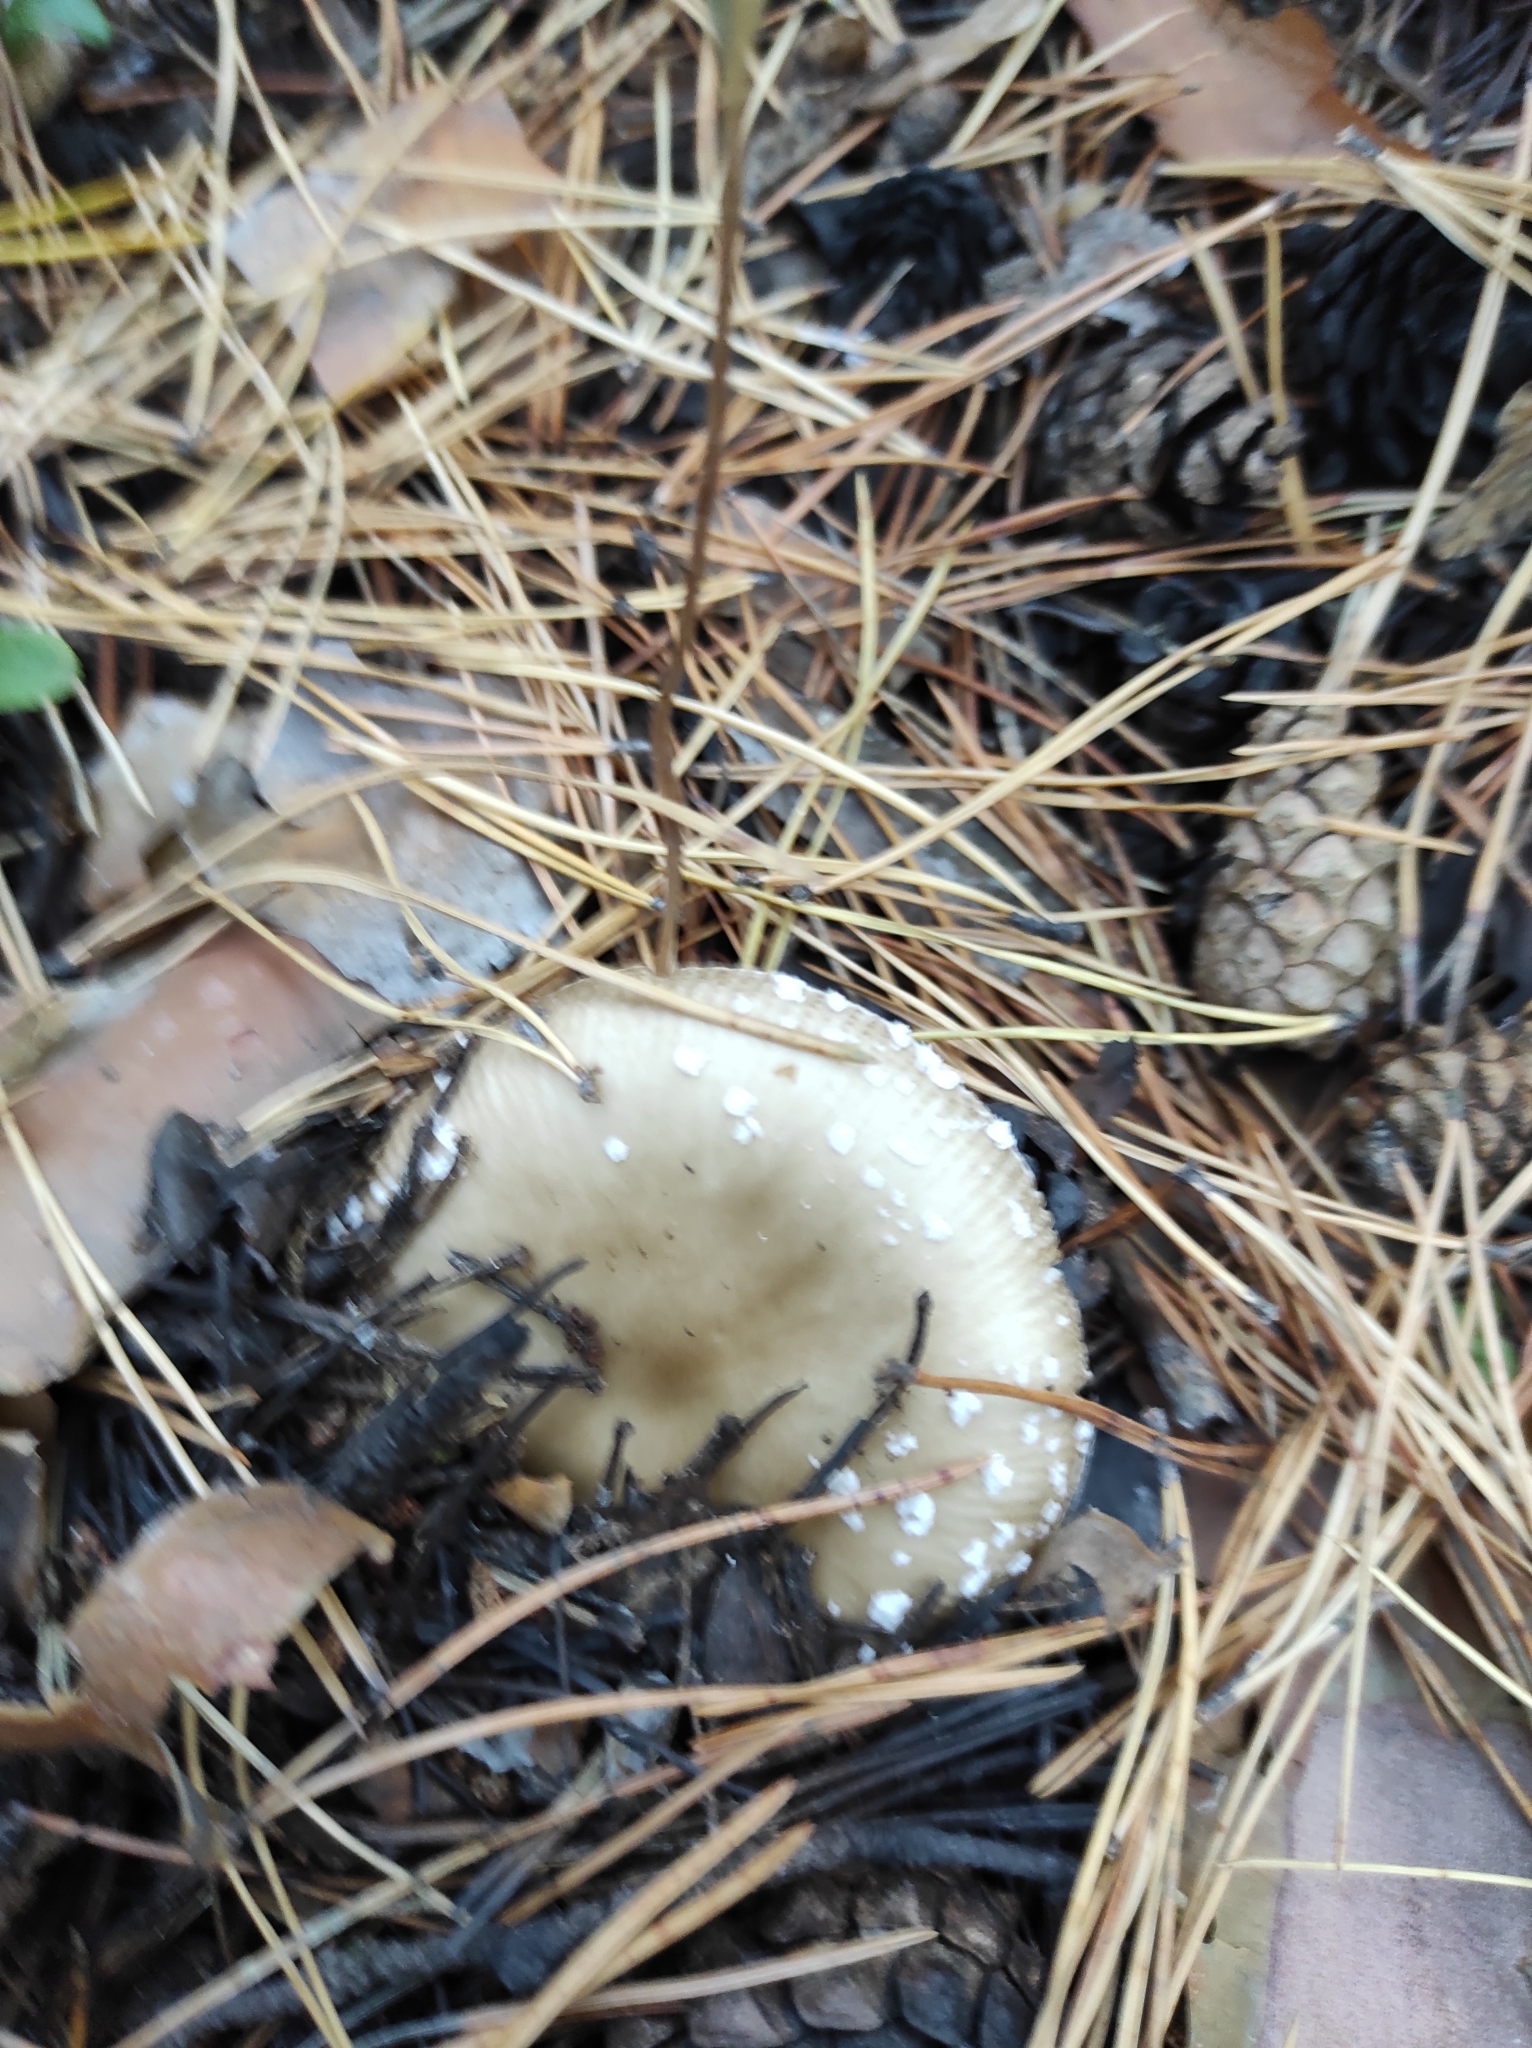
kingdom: Fungi
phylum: Basidiomycota
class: Agaricomycetes
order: Agaricales
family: Amanitaceae
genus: Amanita
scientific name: Amanita pantherina
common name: Panthercap
